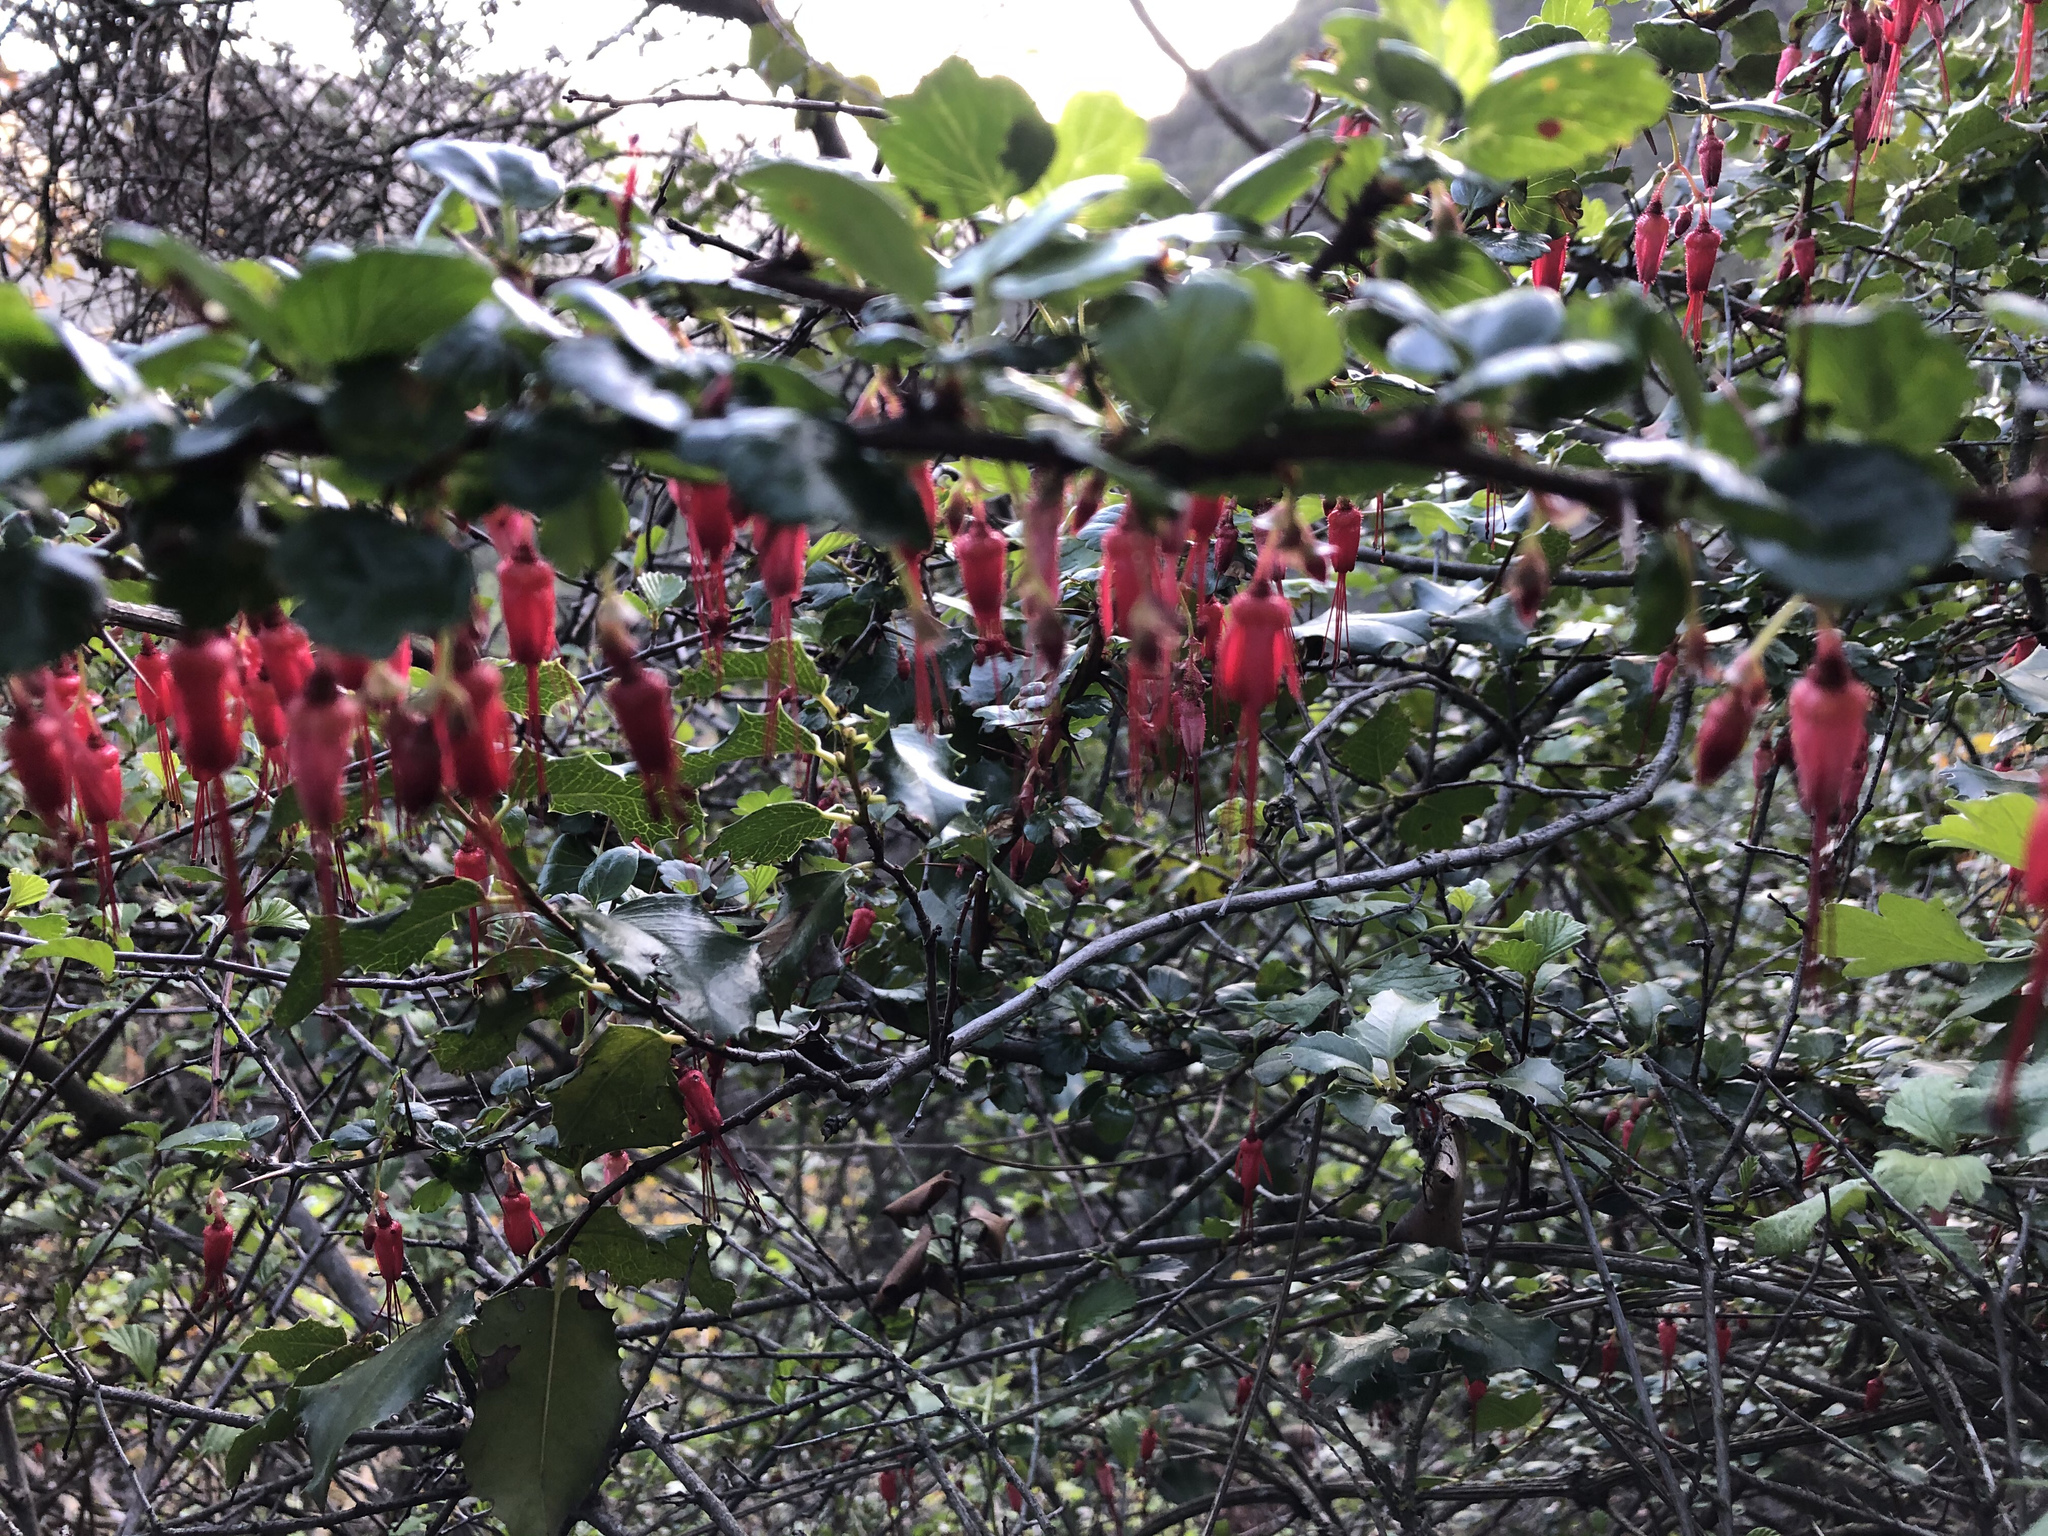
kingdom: Plantae
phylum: Tracheophyta
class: Magnoliopsida
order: Saxifragales
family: Grossulariaceae
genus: Ribes
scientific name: Ribes speciosum
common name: Fuchsia-flower gooseberry
